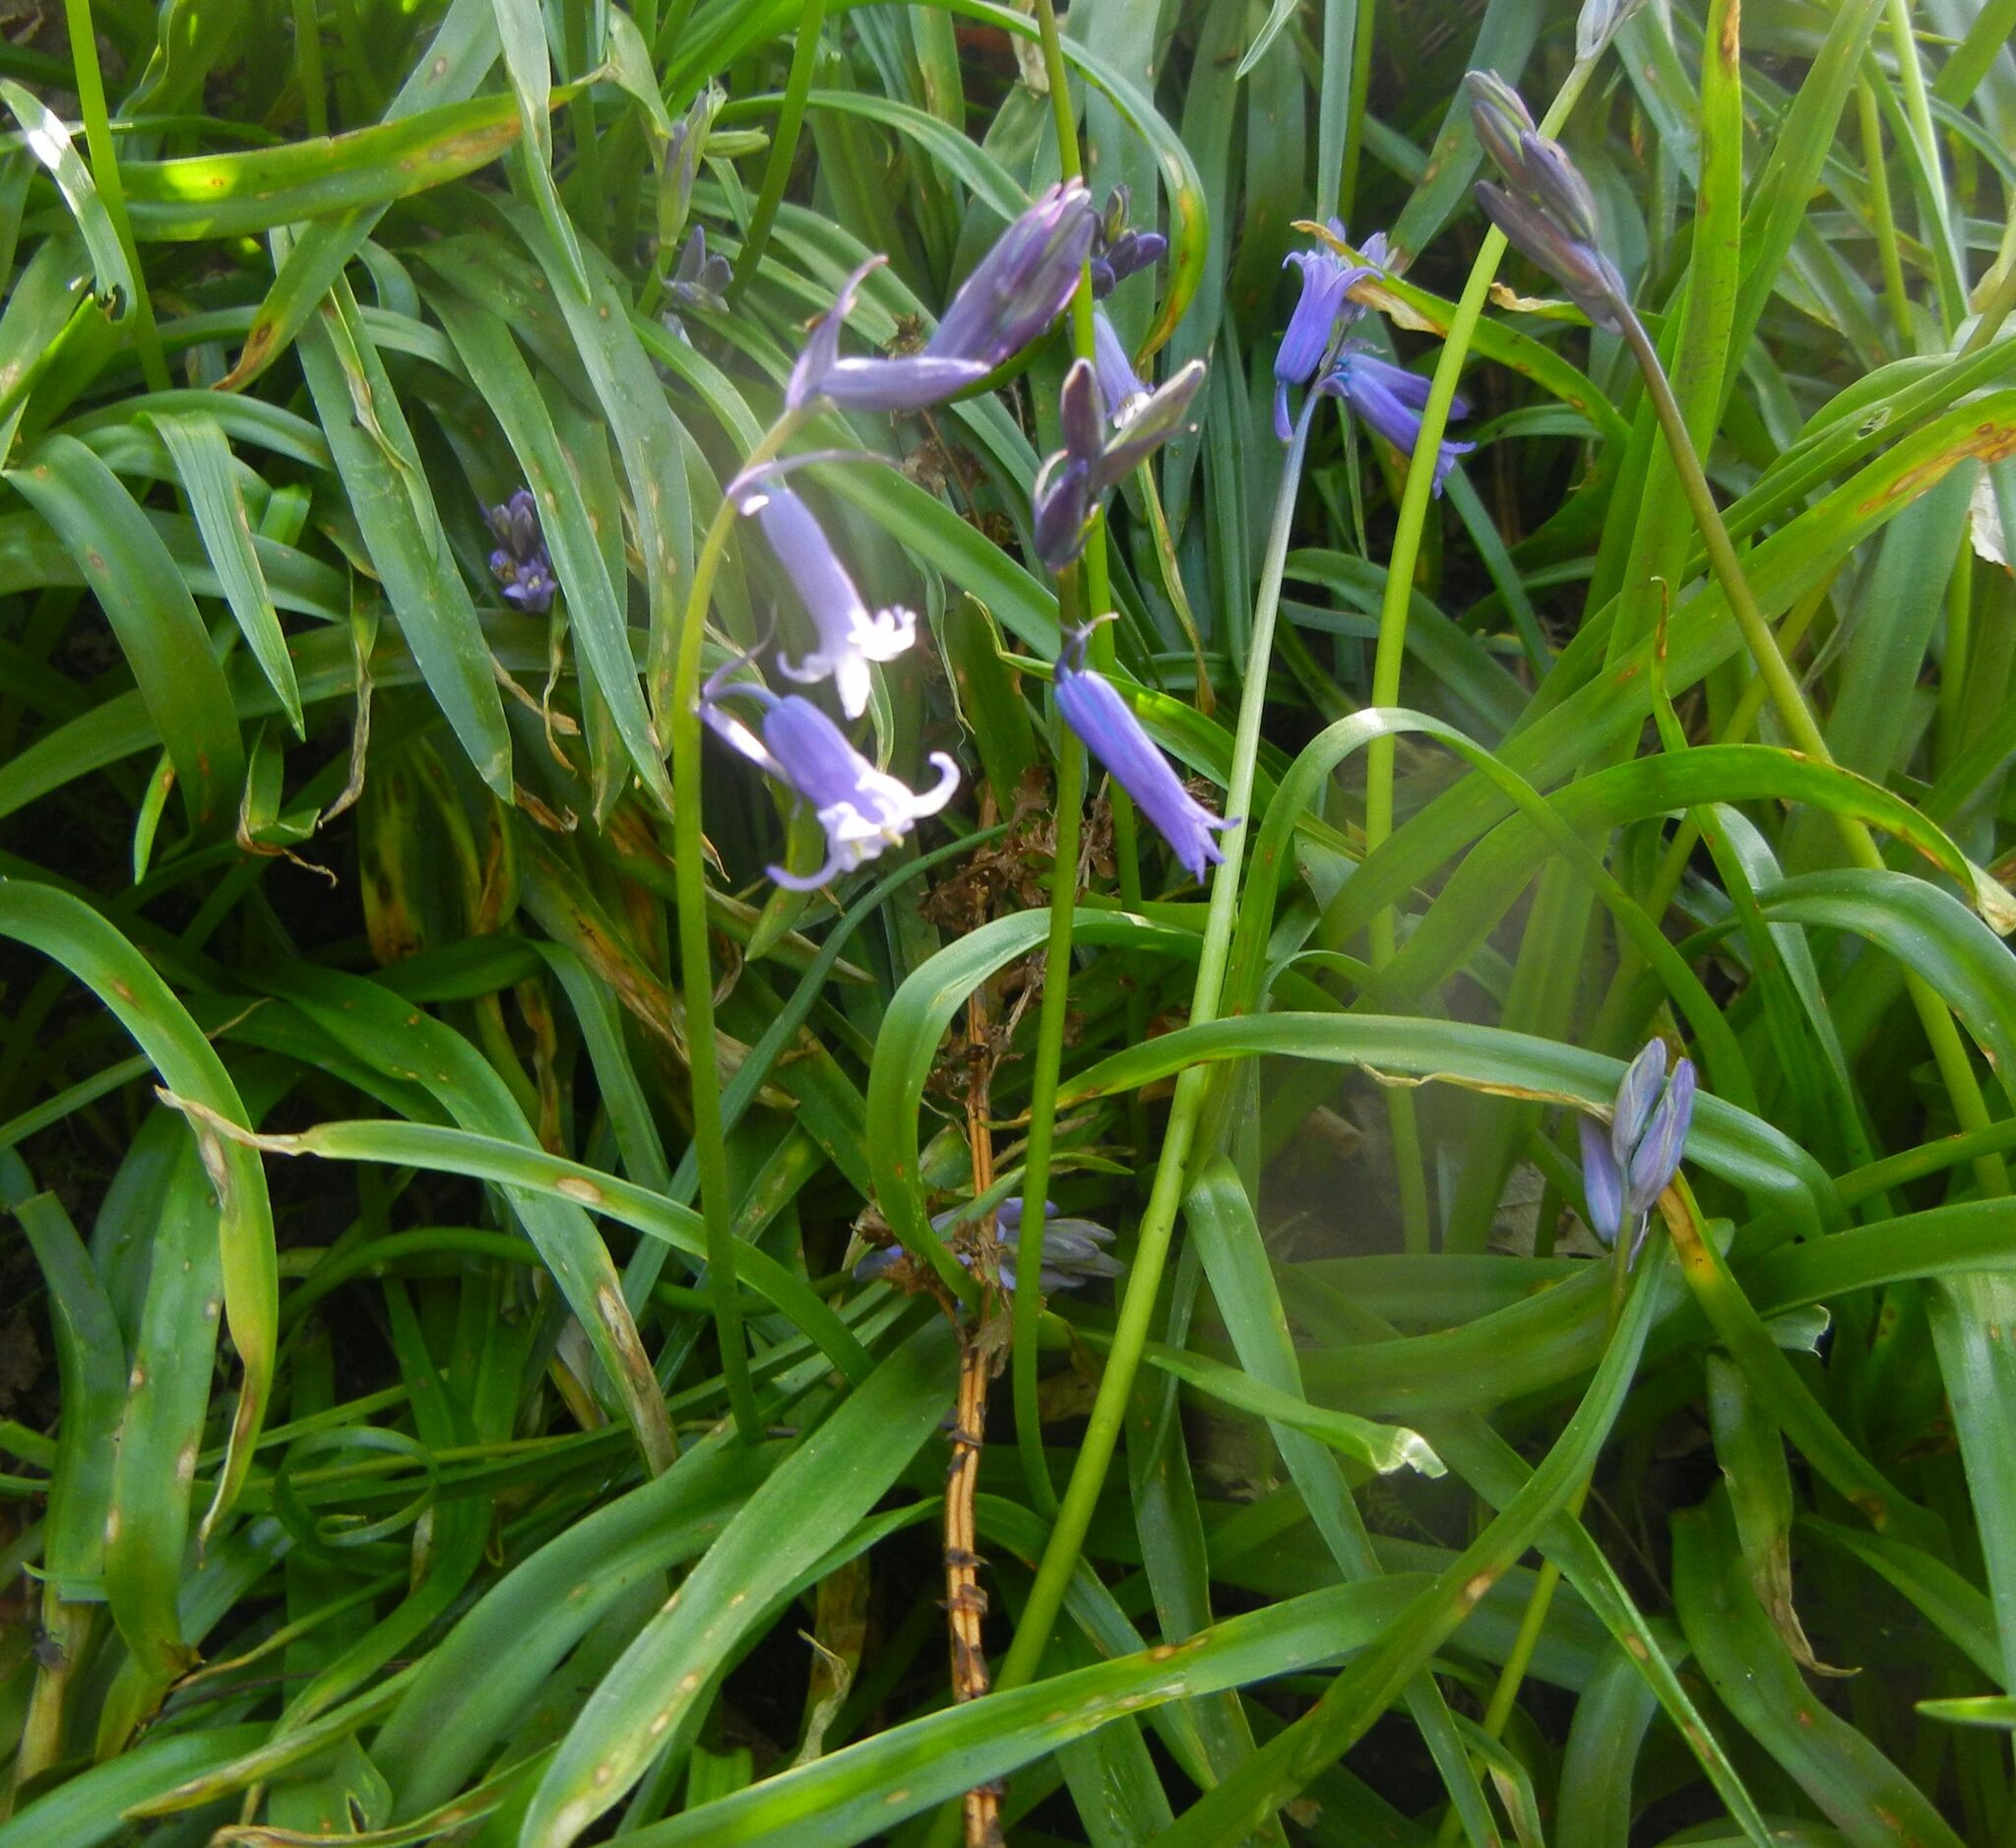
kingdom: Plantae
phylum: Tracheophyta
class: Liliopsida
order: Asparagales
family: Asparagaceae
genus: Hyacinthoides
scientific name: Hyacinthoides non-scripta
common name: Bluebell
